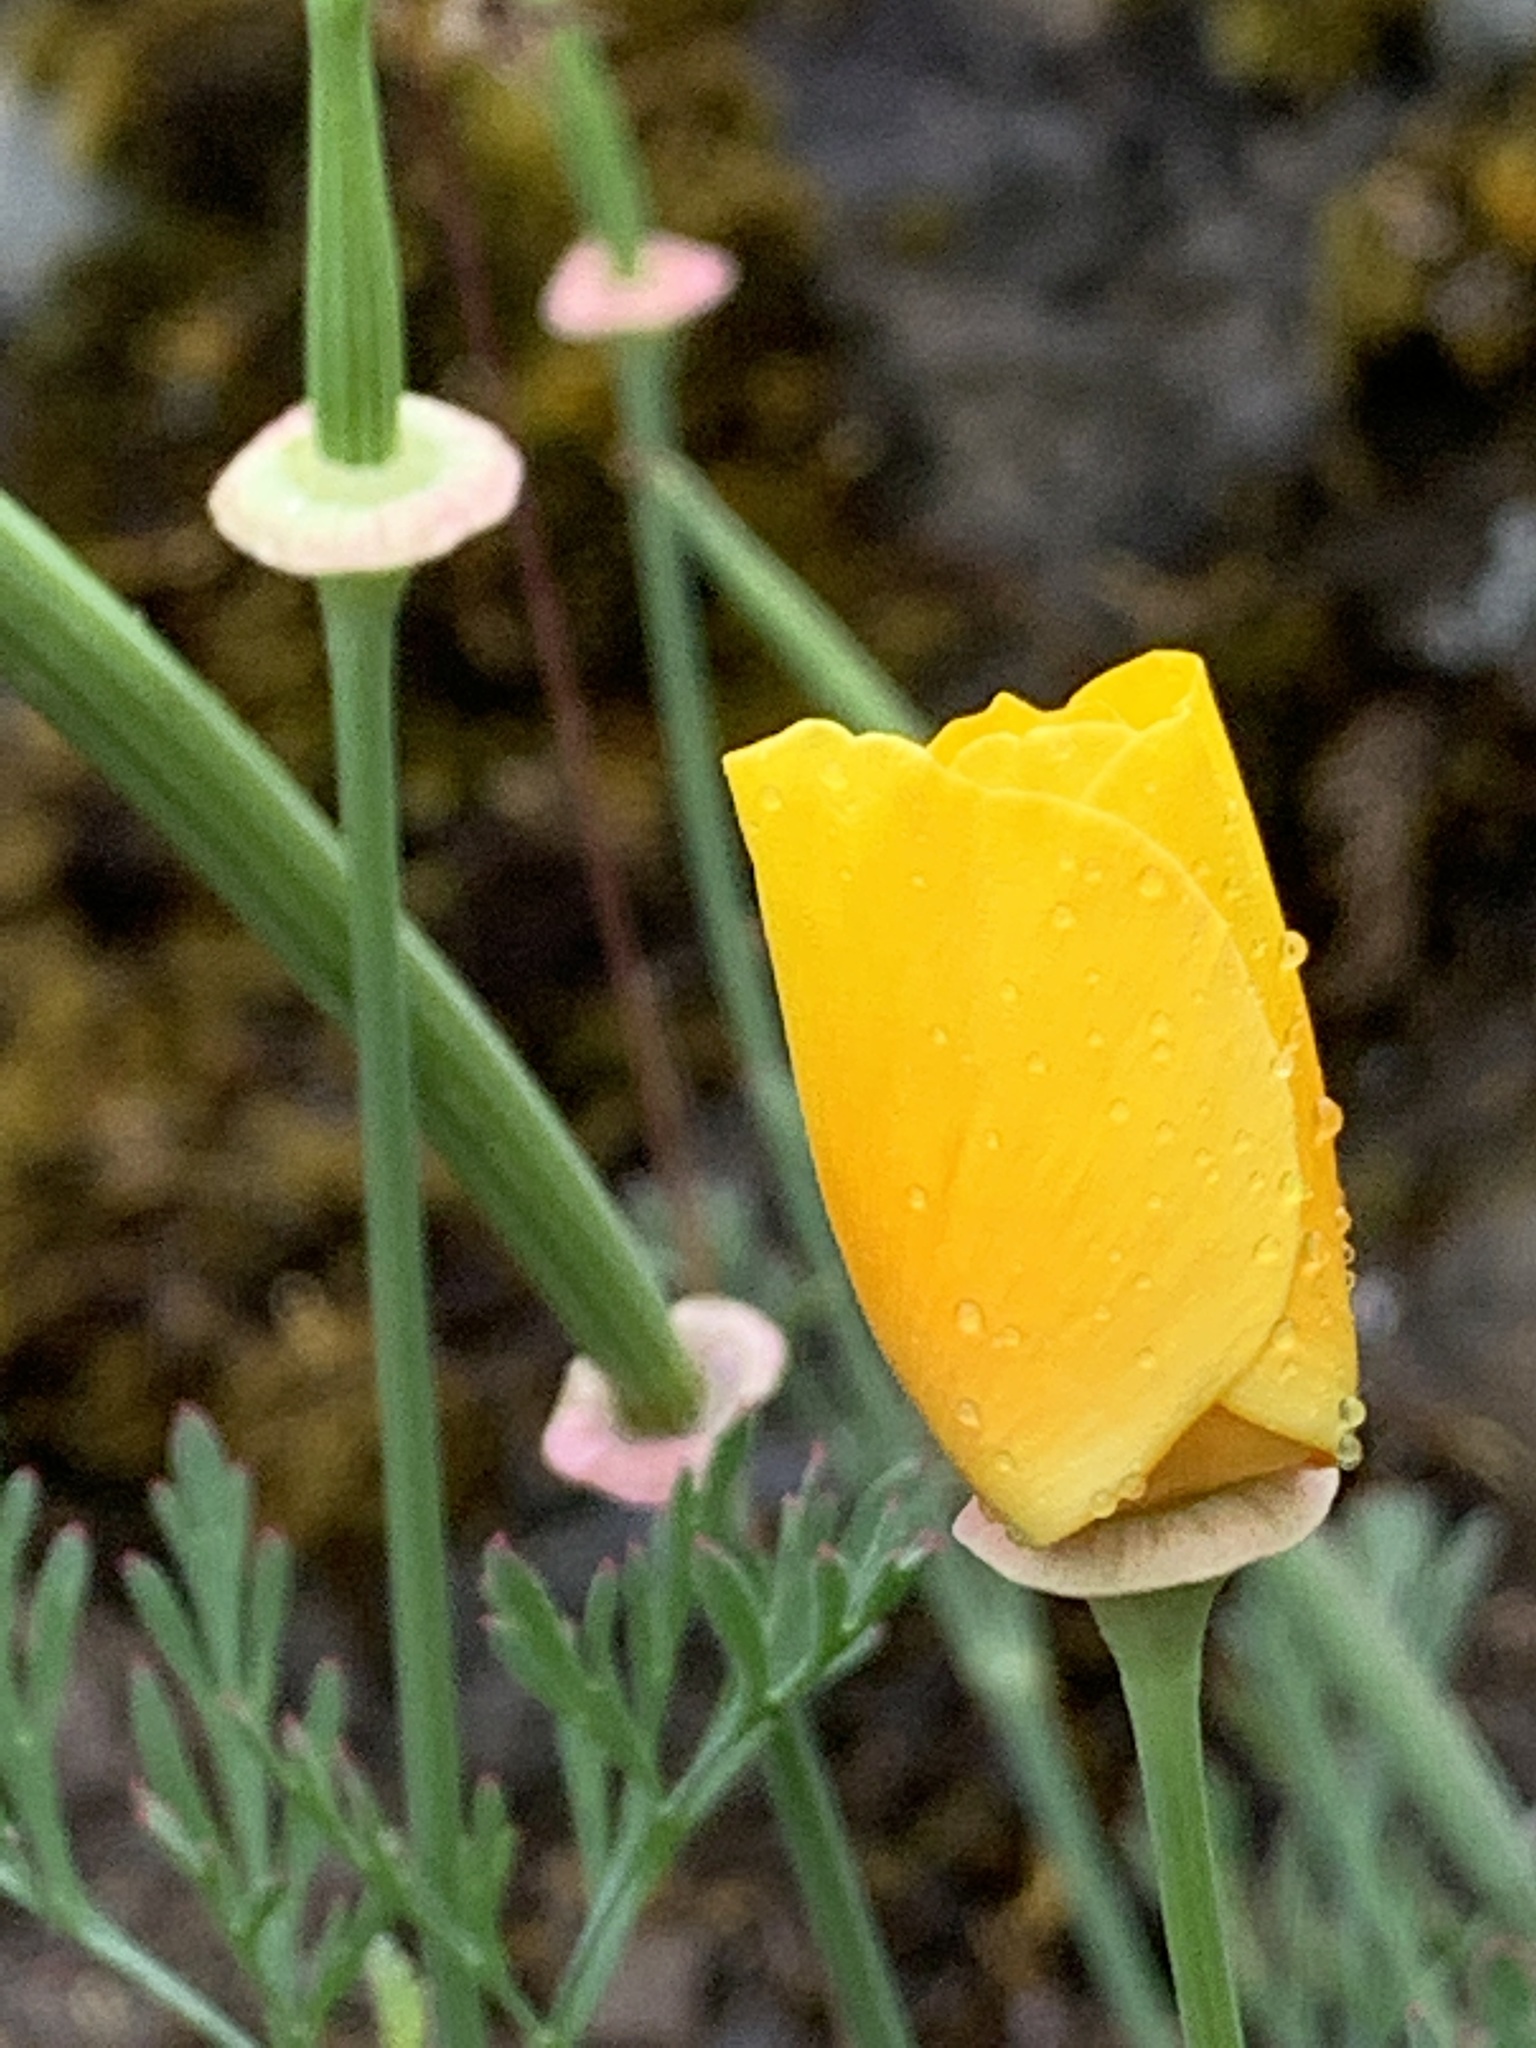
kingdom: Plantae
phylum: Tracheophyta
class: Magnoliopsida
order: Ranunculales
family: Papaveraceae
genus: Eschscholzia
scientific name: Eschscholzia californica
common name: California poppy
